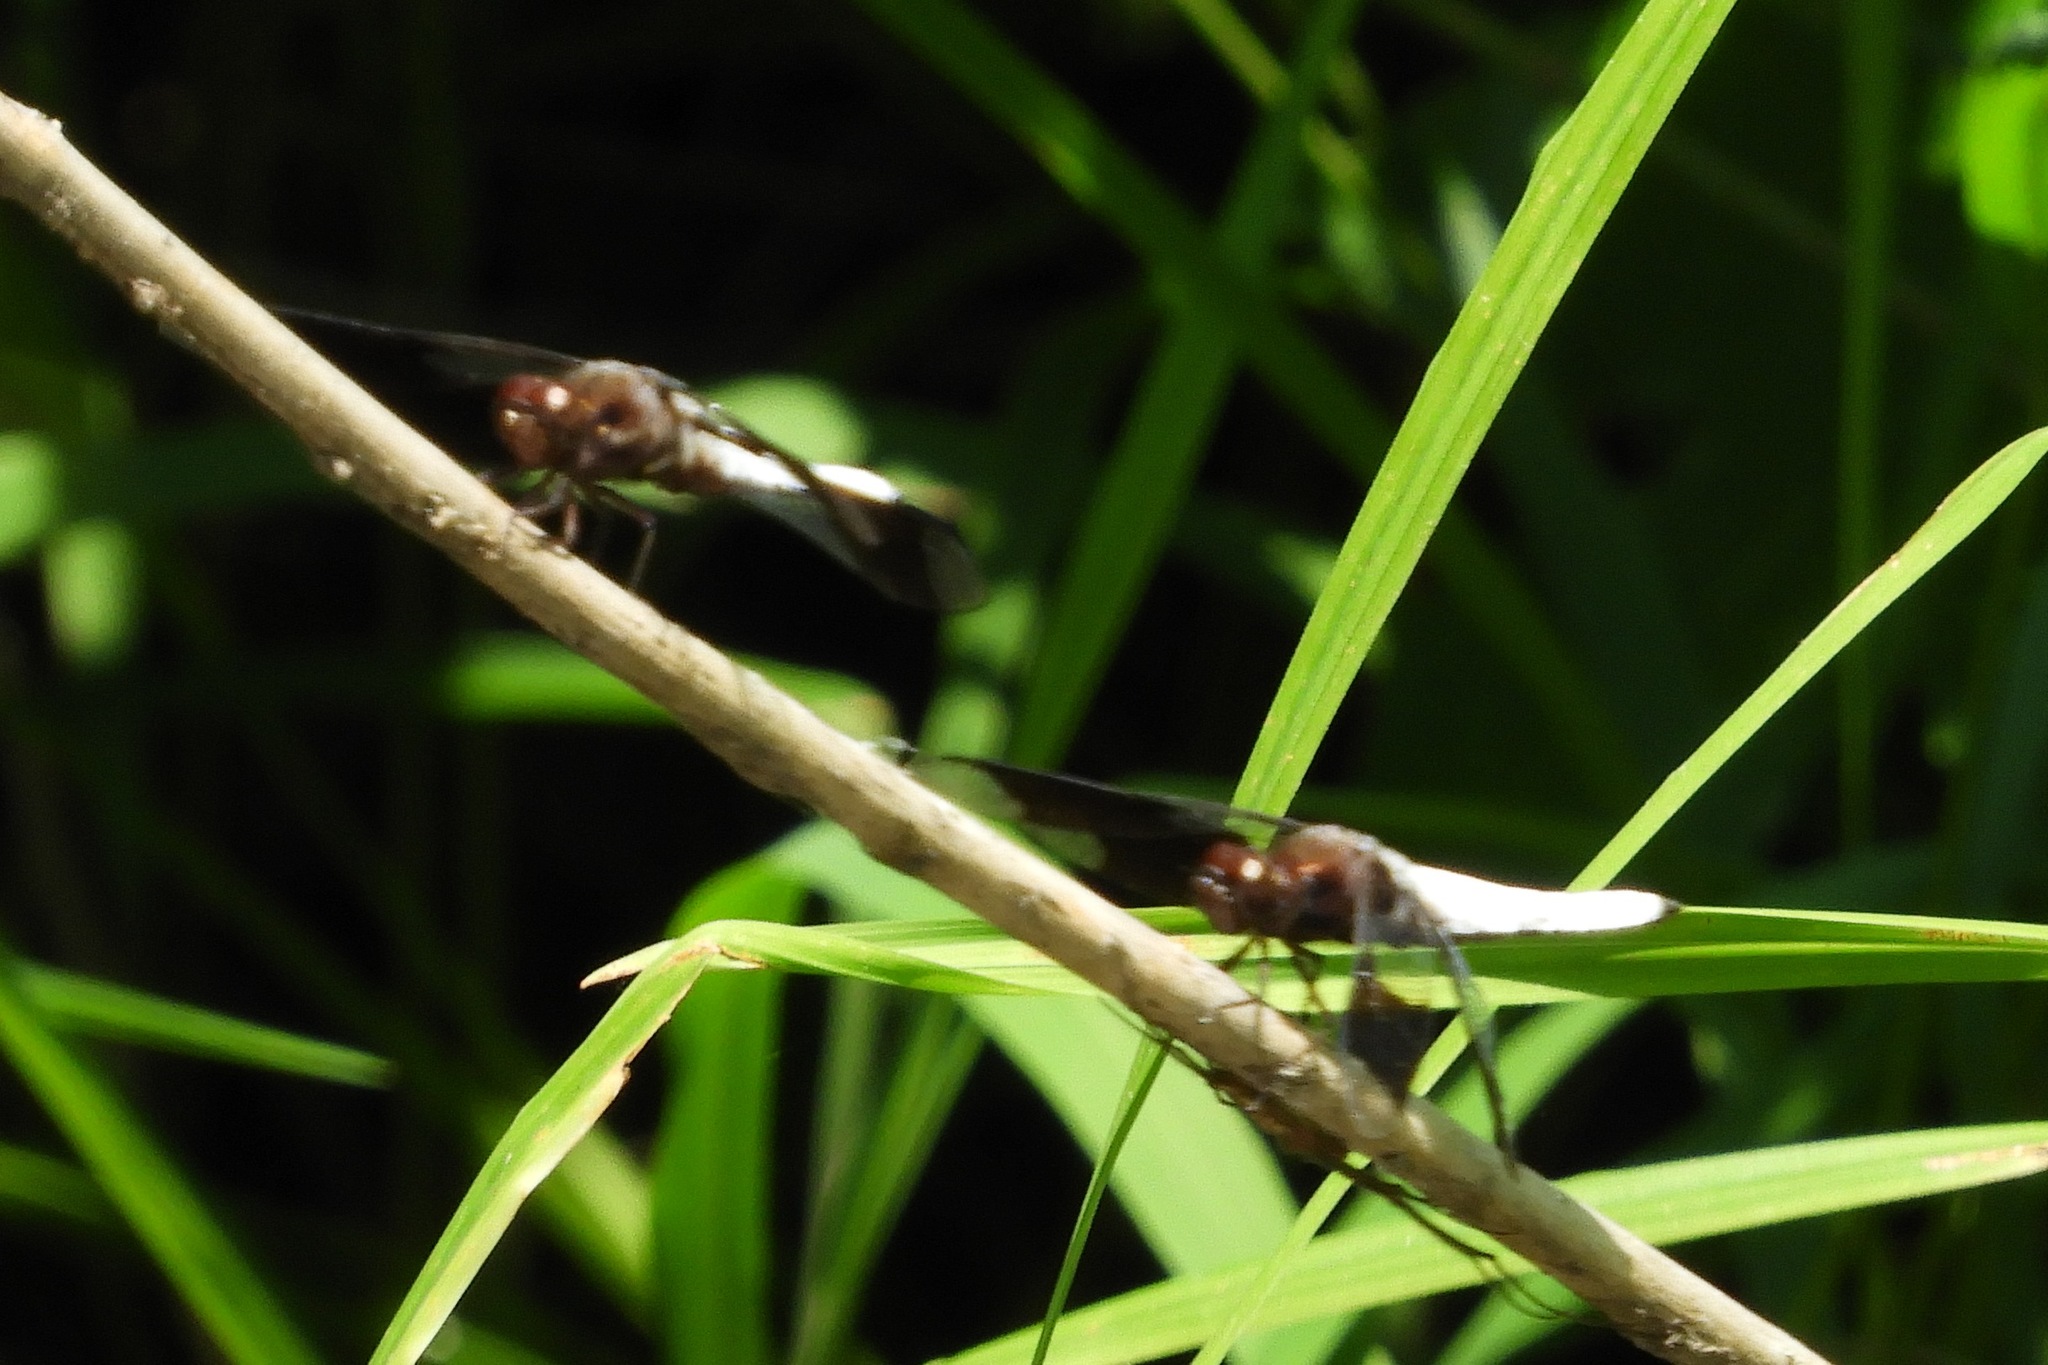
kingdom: Animalia
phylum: Arthropoda
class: Insecta
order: Odonata
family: Libellulidae
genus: Plathemis
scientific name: Plathemis lydia
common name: Common whitetail
